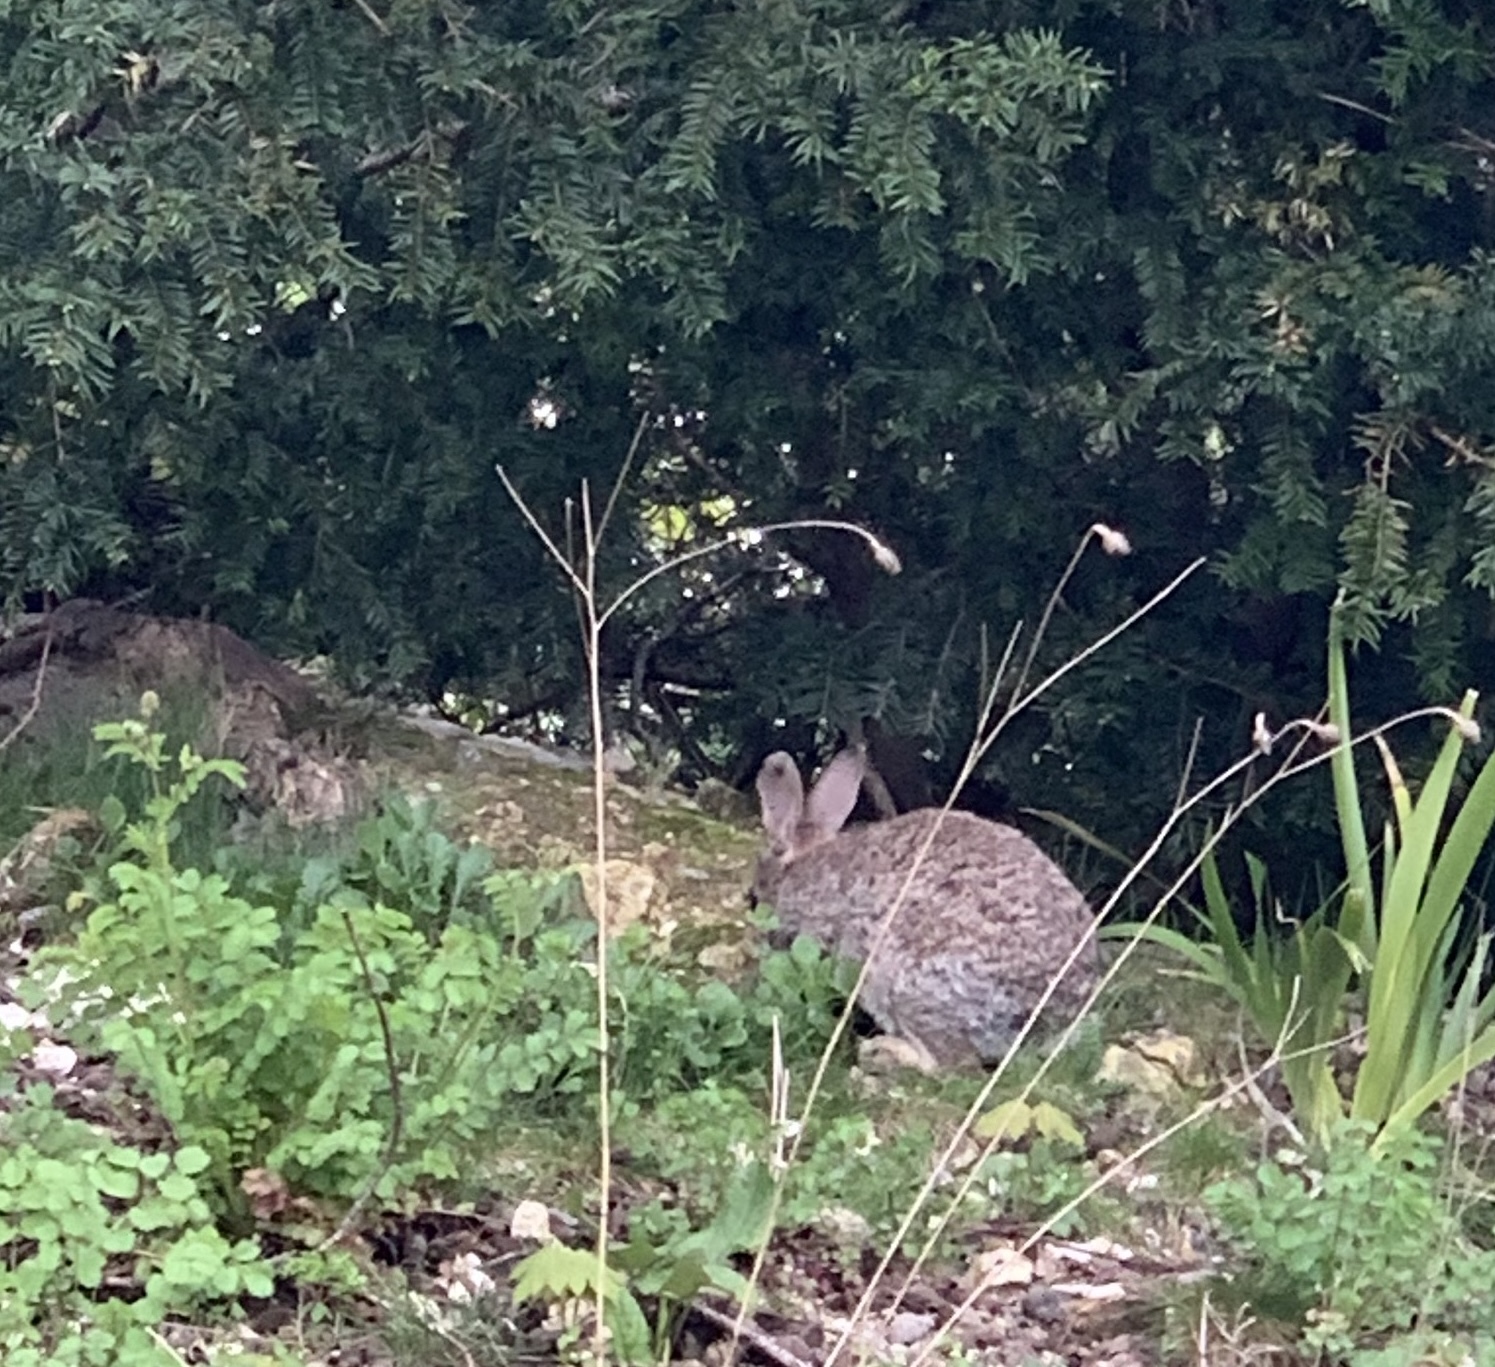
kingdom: Animalia
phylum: Chordata
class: Mammalia
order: Lagomorpha
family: Leporidae
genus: Oryctolagus
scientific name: Oryctolagus cuniculus
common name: European rabbit
